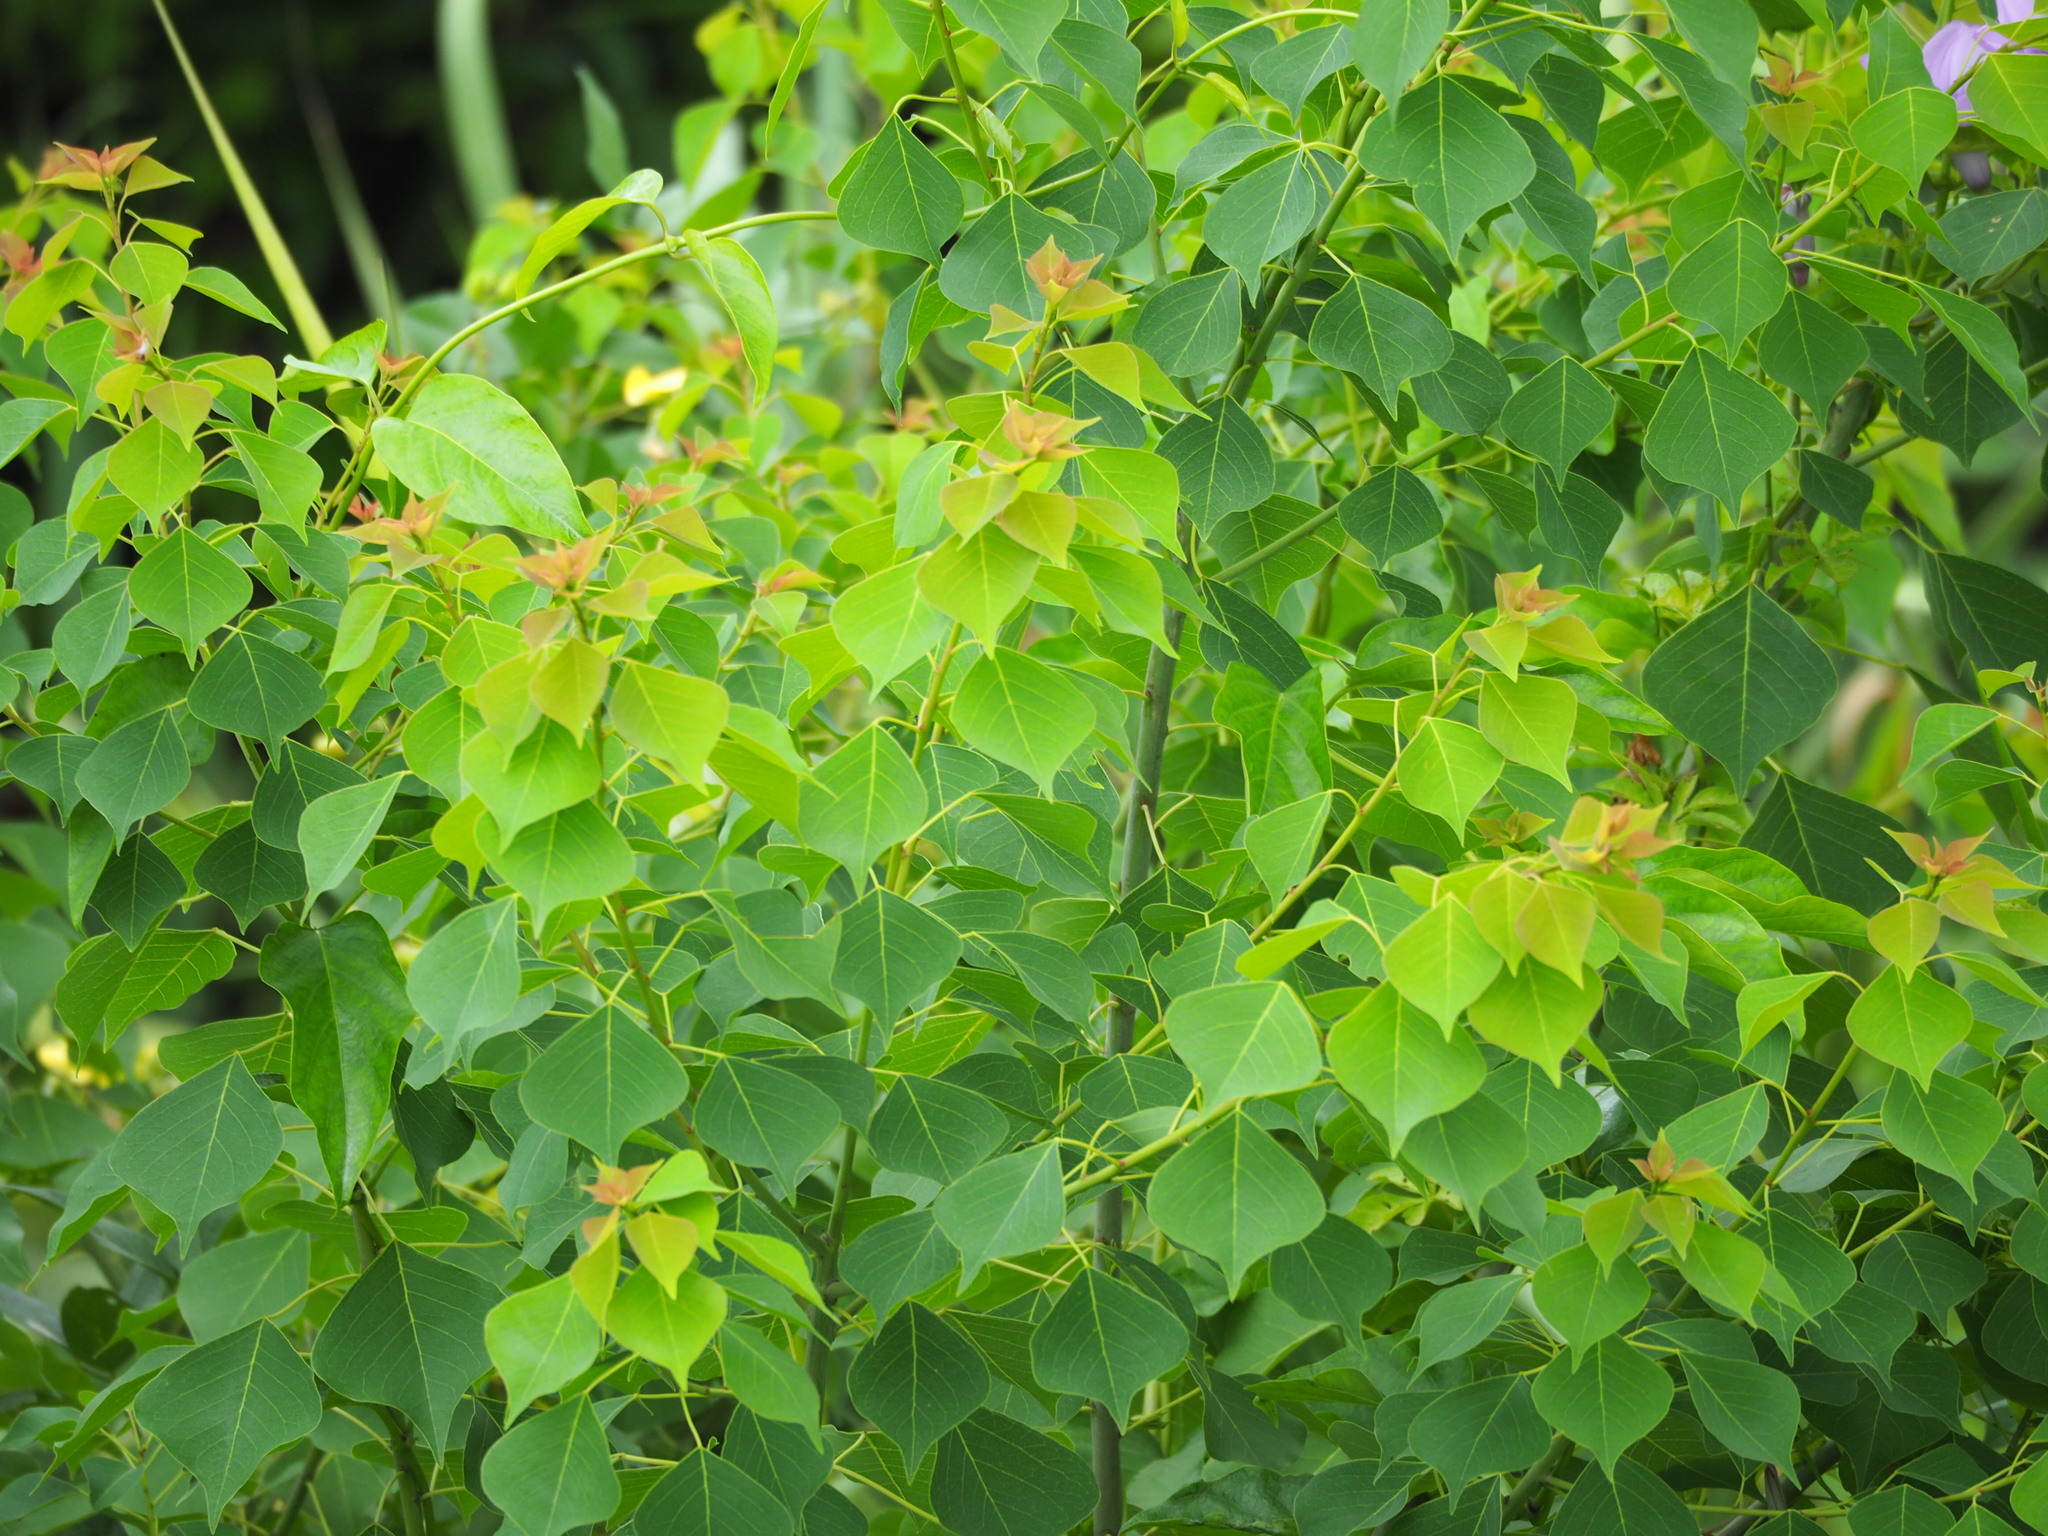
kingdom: Plantae
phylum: Tracheophyta
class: Magnoliopsida
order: Malpighiales
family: Euphorbiaceae
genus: Triadica
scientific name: Triadica sebifera
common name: Chinese tallow
